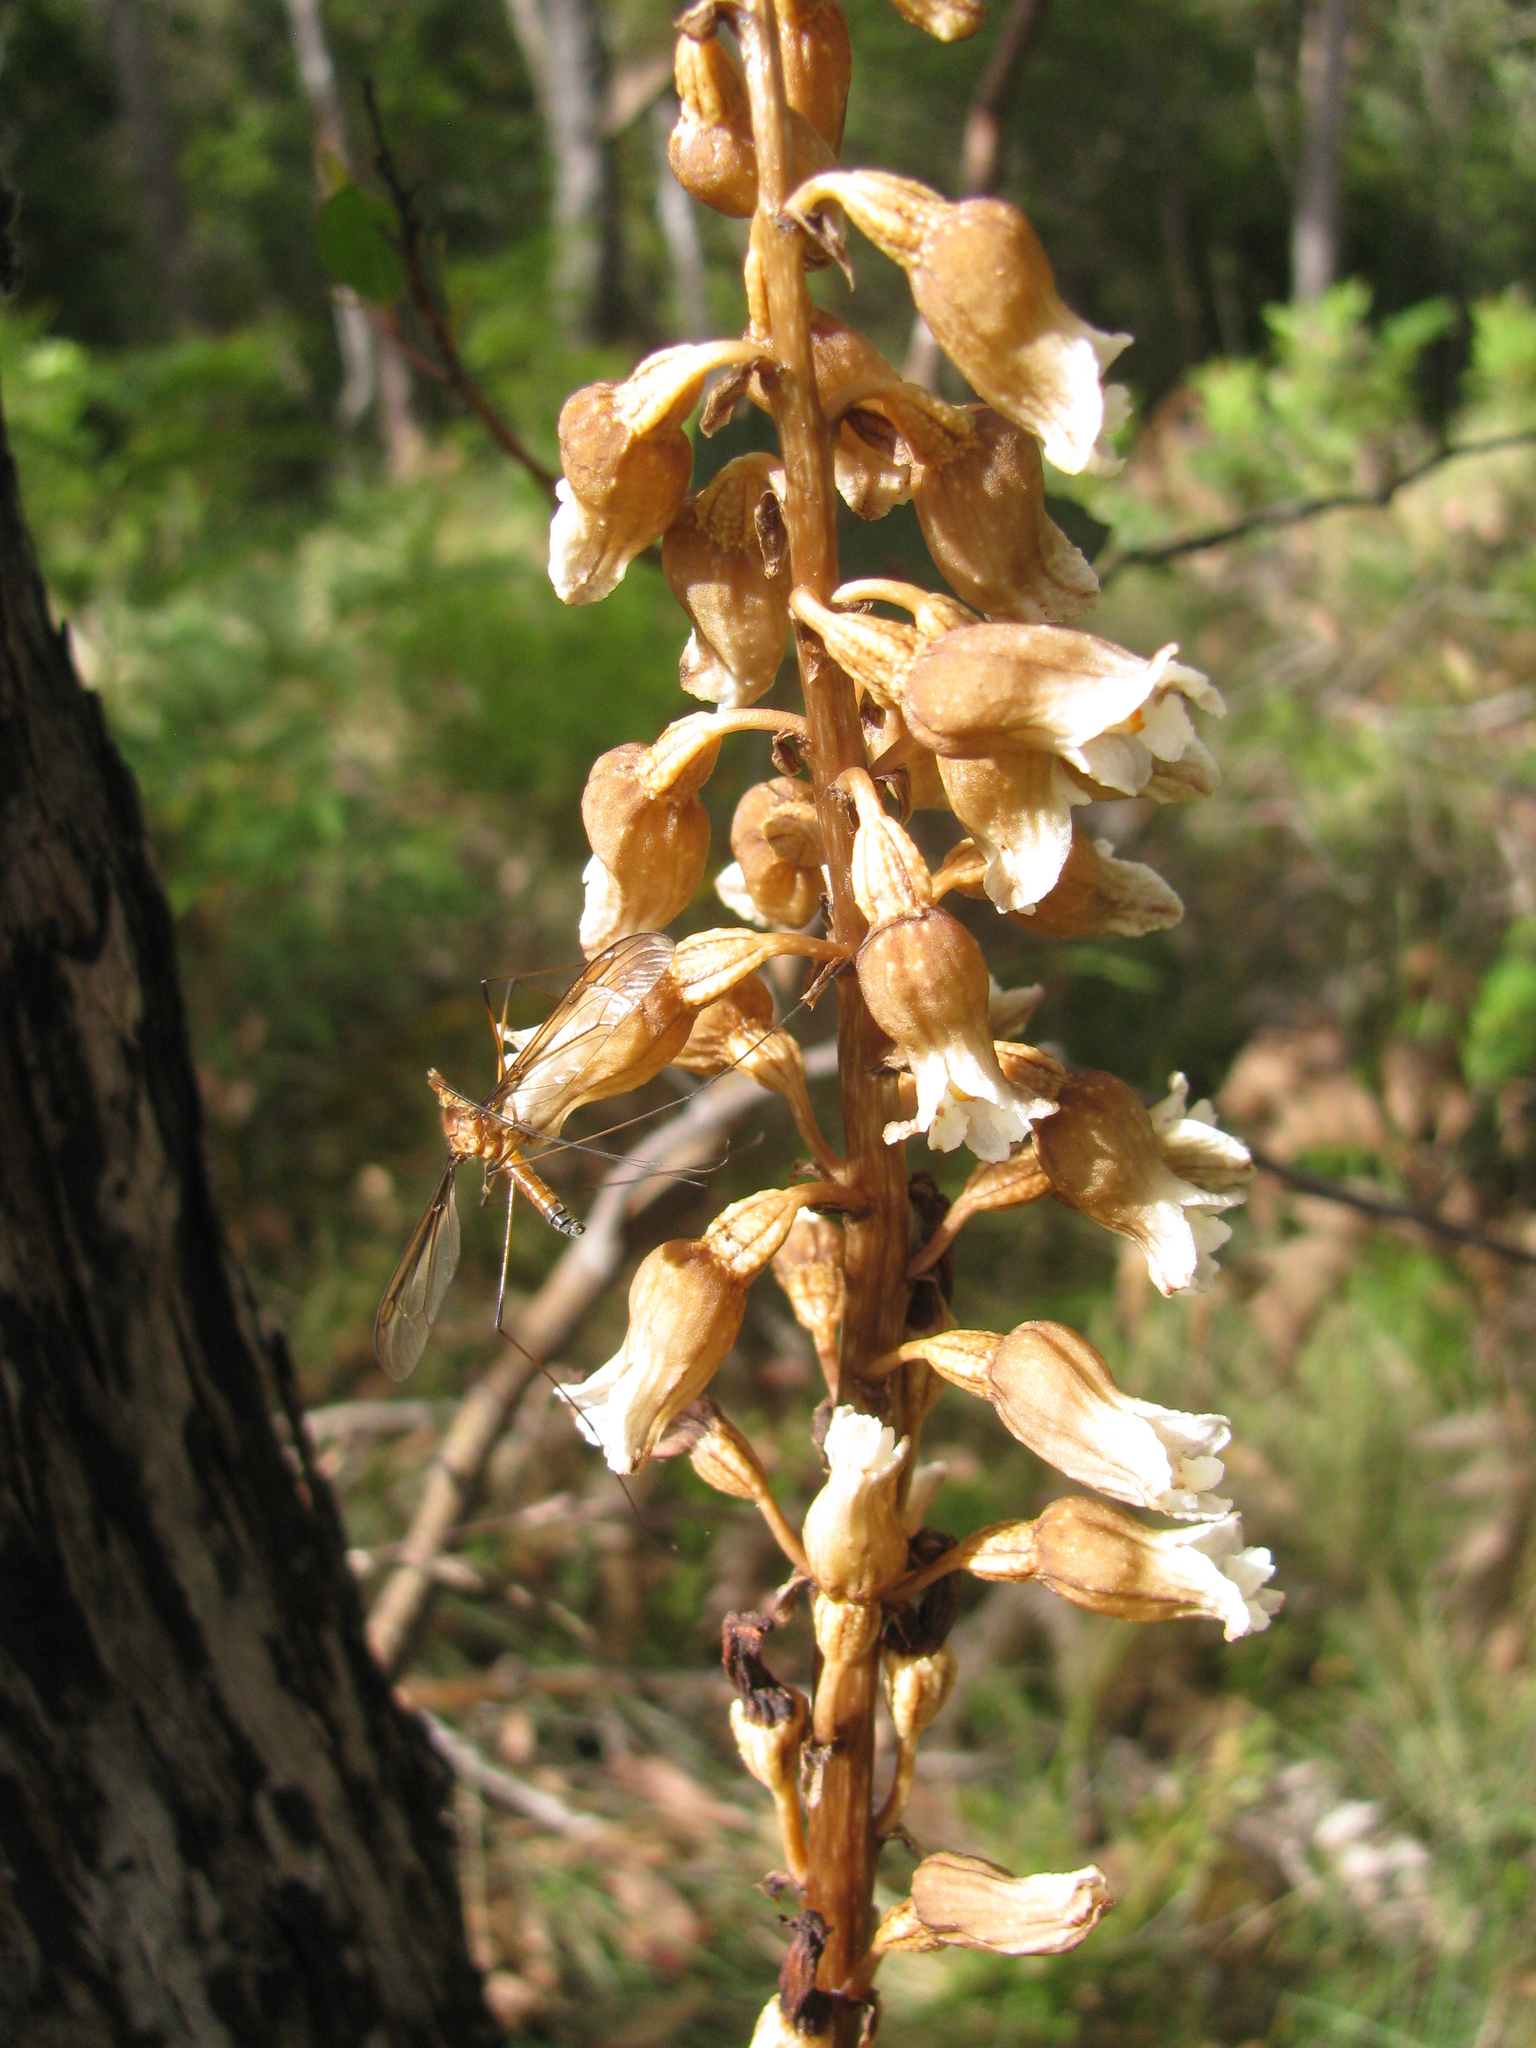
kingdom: Plantae
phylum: Tracheophyta
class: Liliopsida
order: Asparagales
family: Orchidaceae
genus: Gastrodia
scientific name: Gastrodia procera
